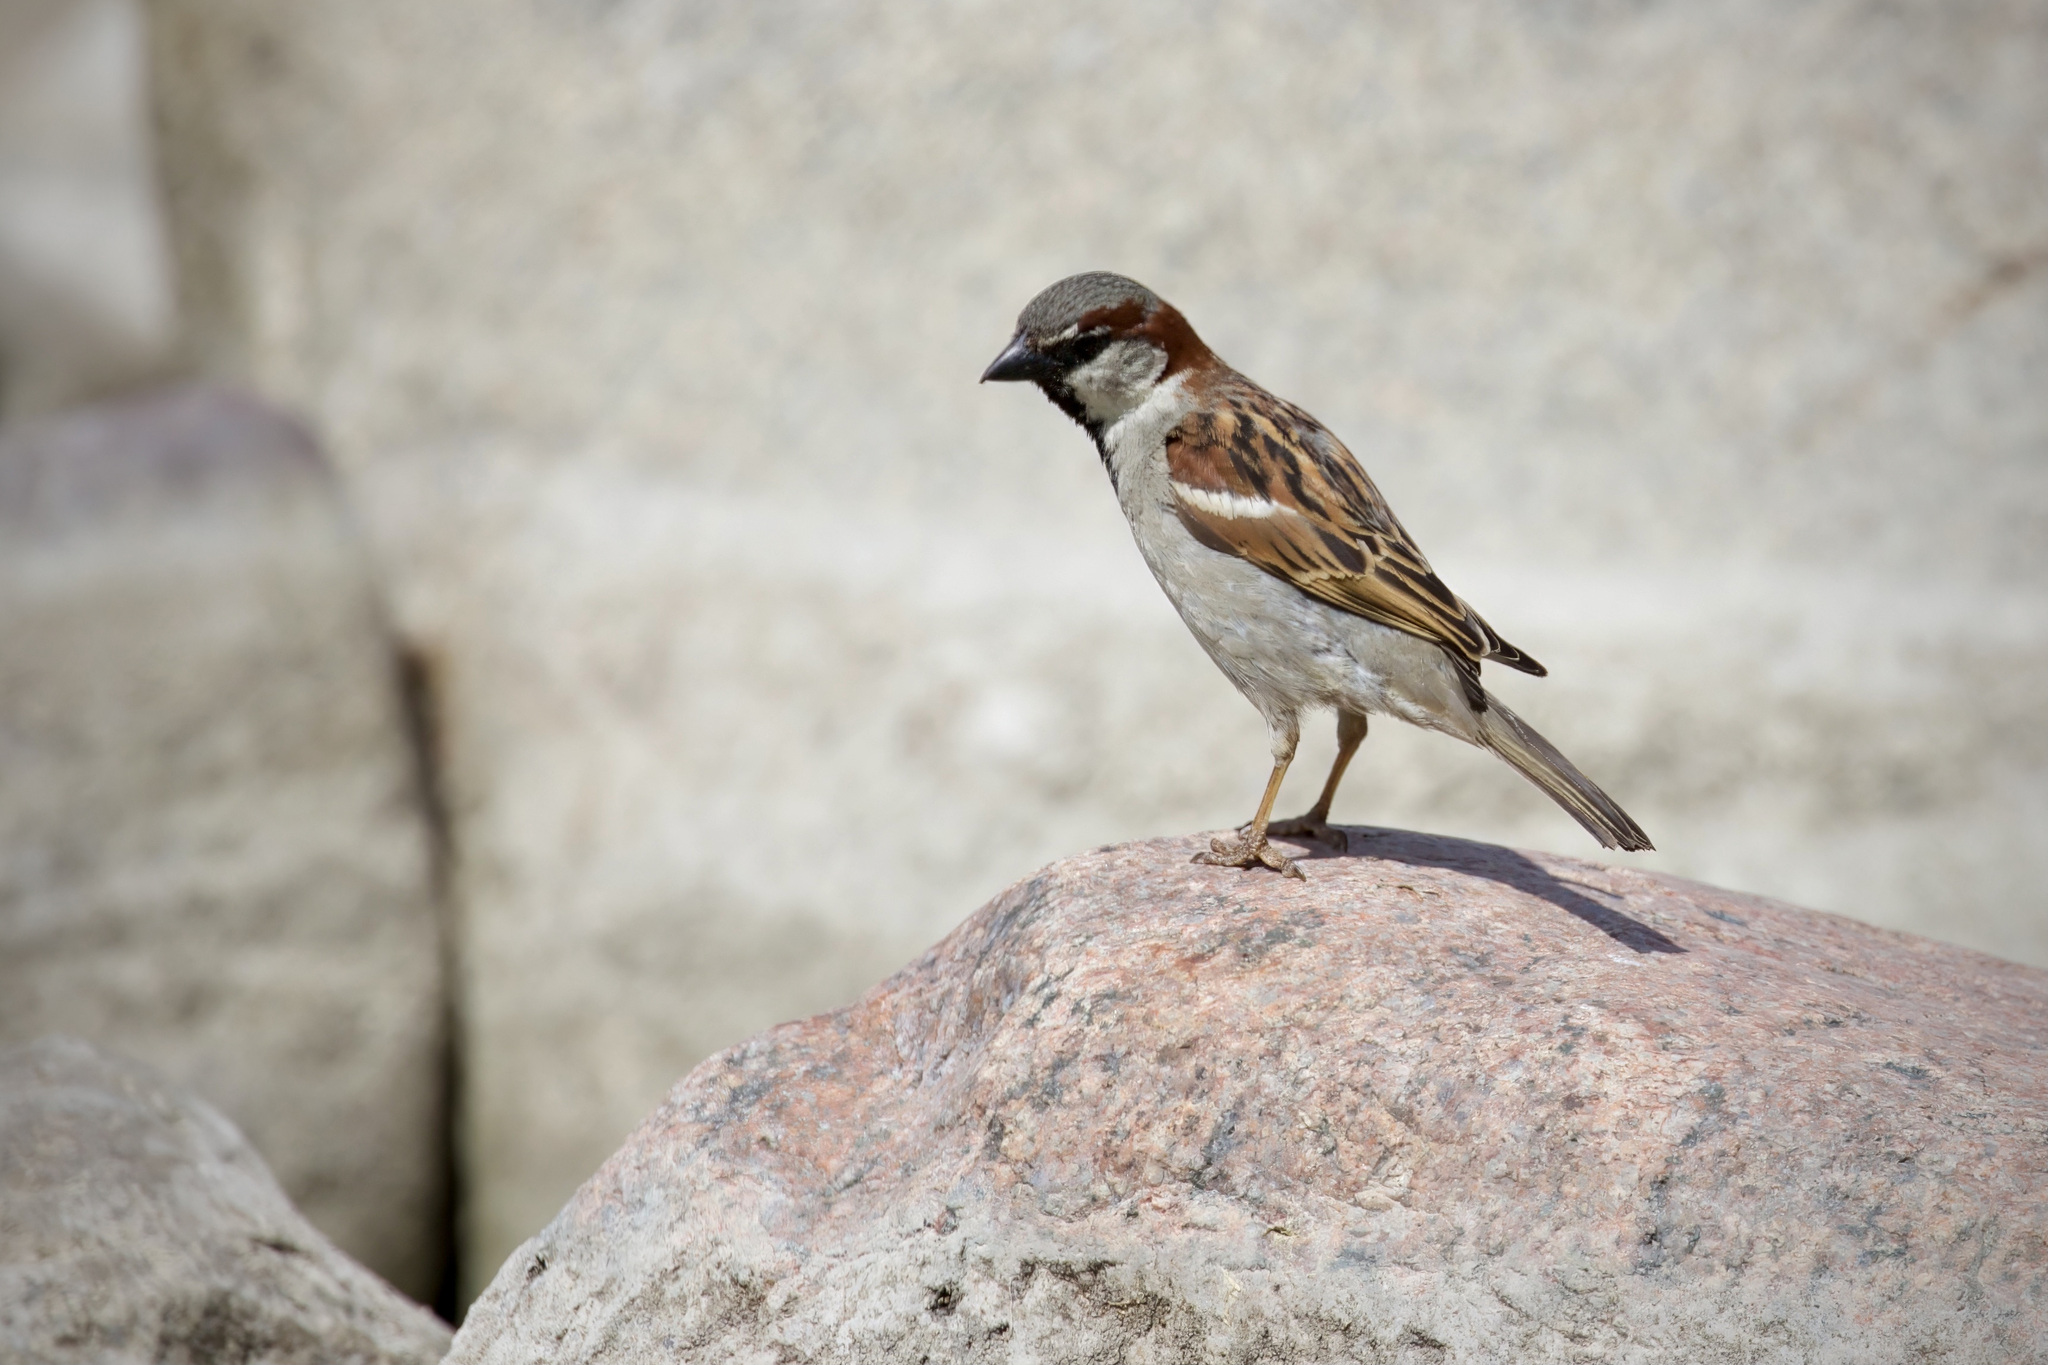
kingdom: Animalia
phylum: Chordata
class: Aves
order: Passeriformes
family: Passeridae
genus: Passer
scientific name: Passer domesticus
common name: House sparrow
